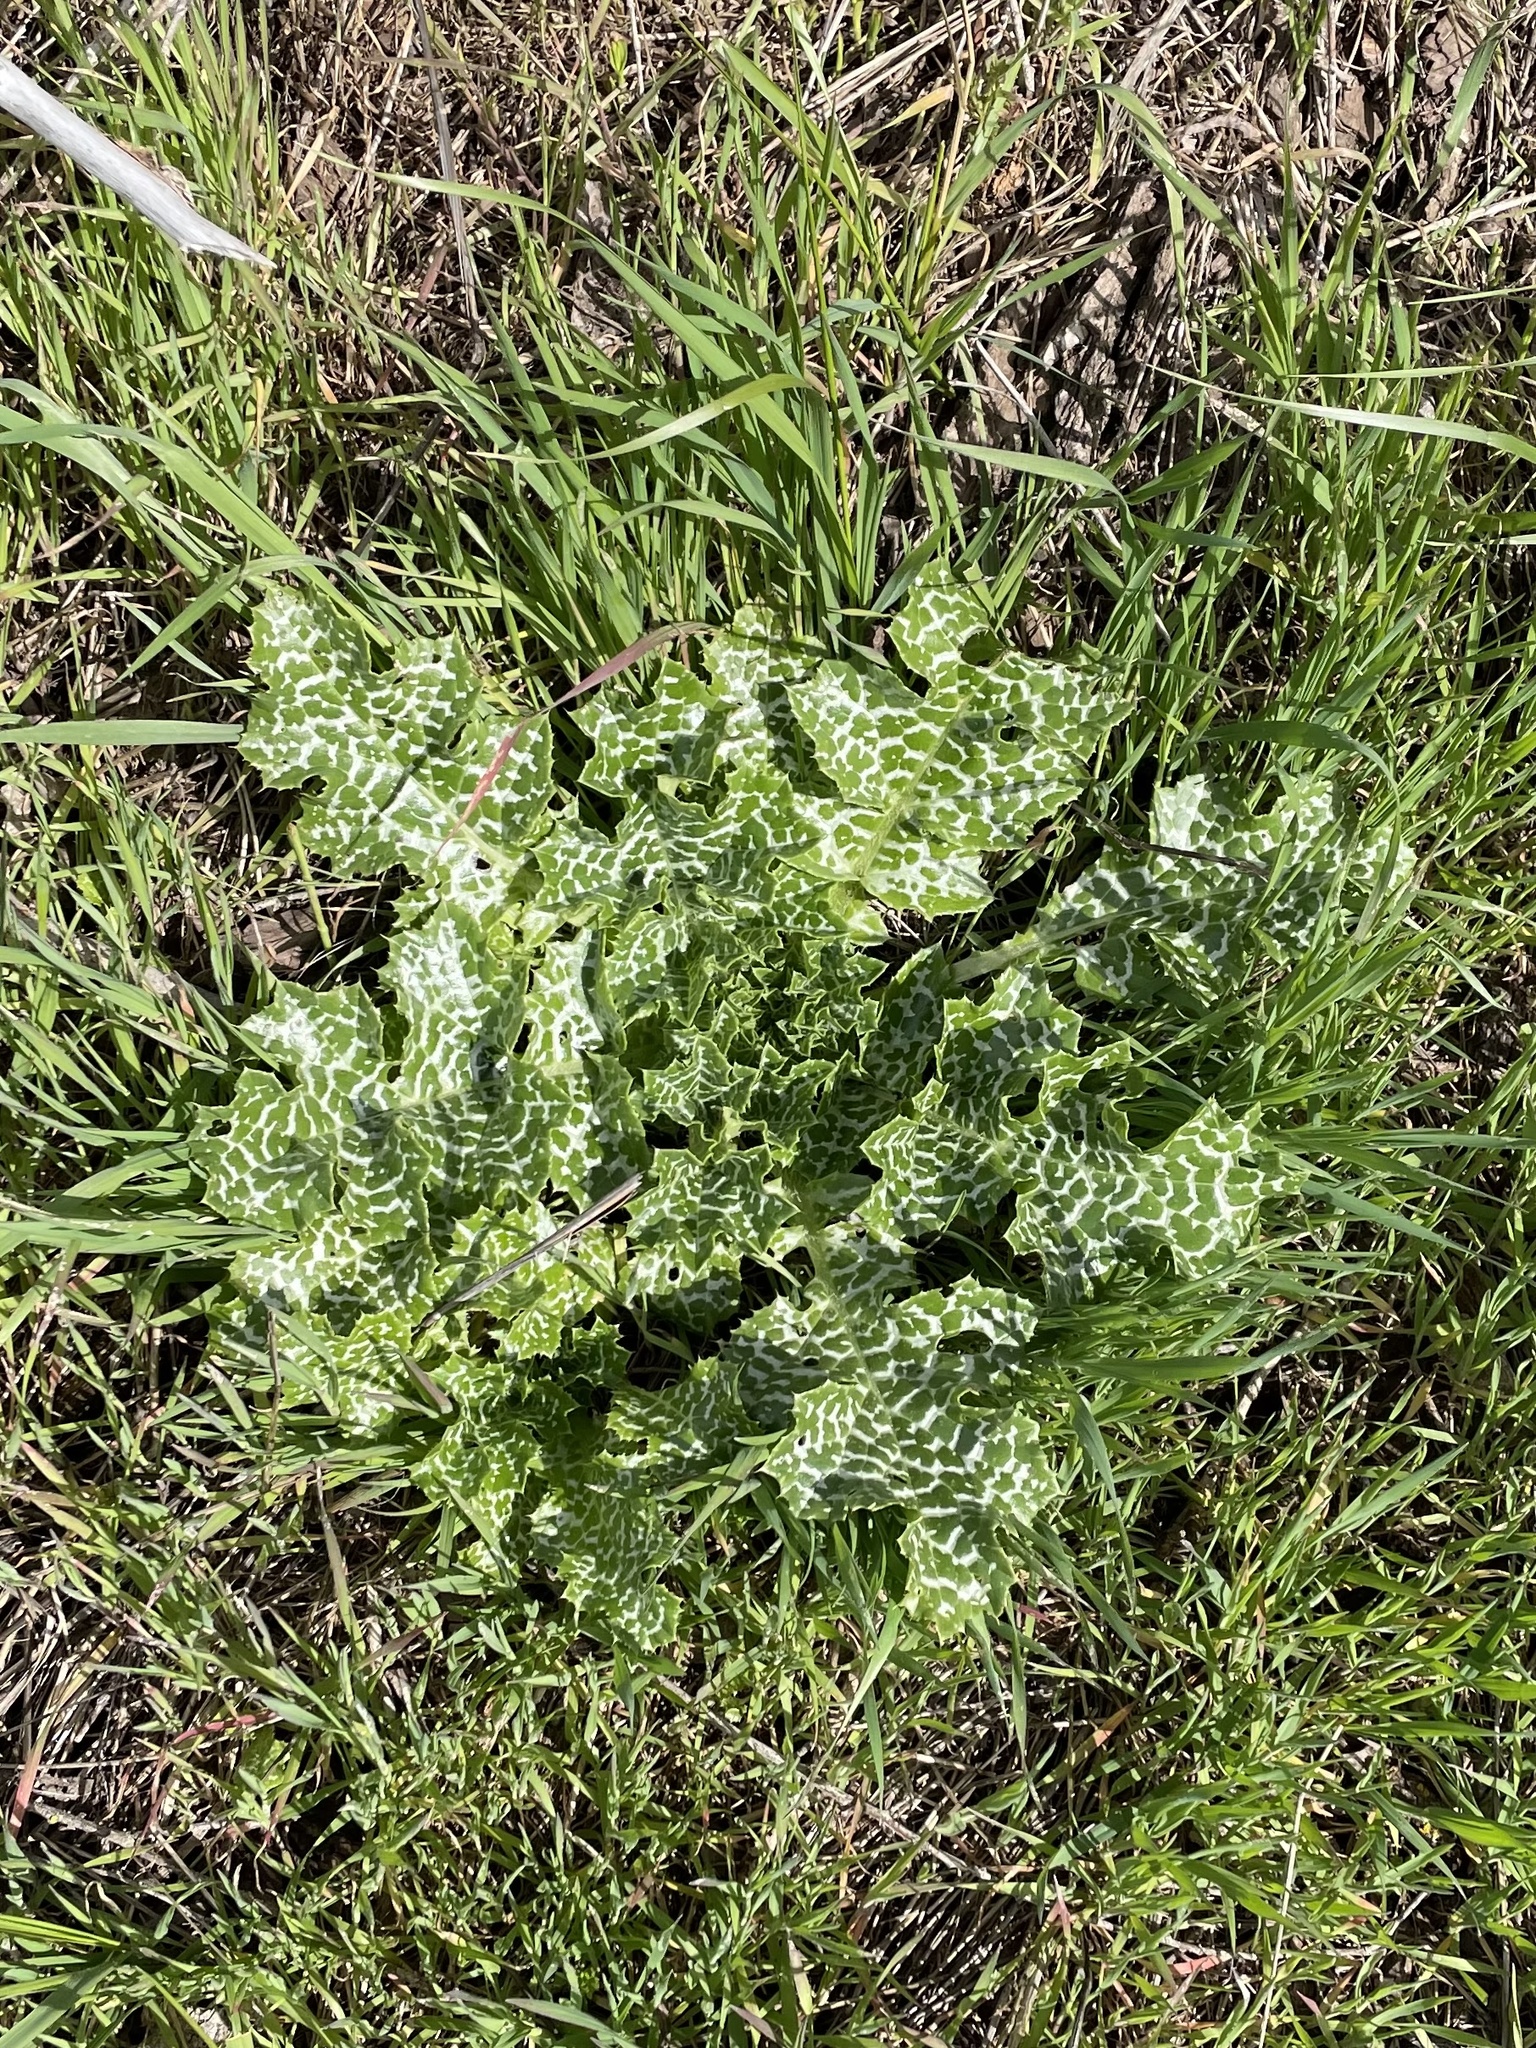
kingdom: Plantae
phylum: Tracheophyta
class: Magnoliopsida
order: Asterales
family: Asteraceae
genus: Silybum
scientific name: Silybum marianum
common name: Milk thistle
